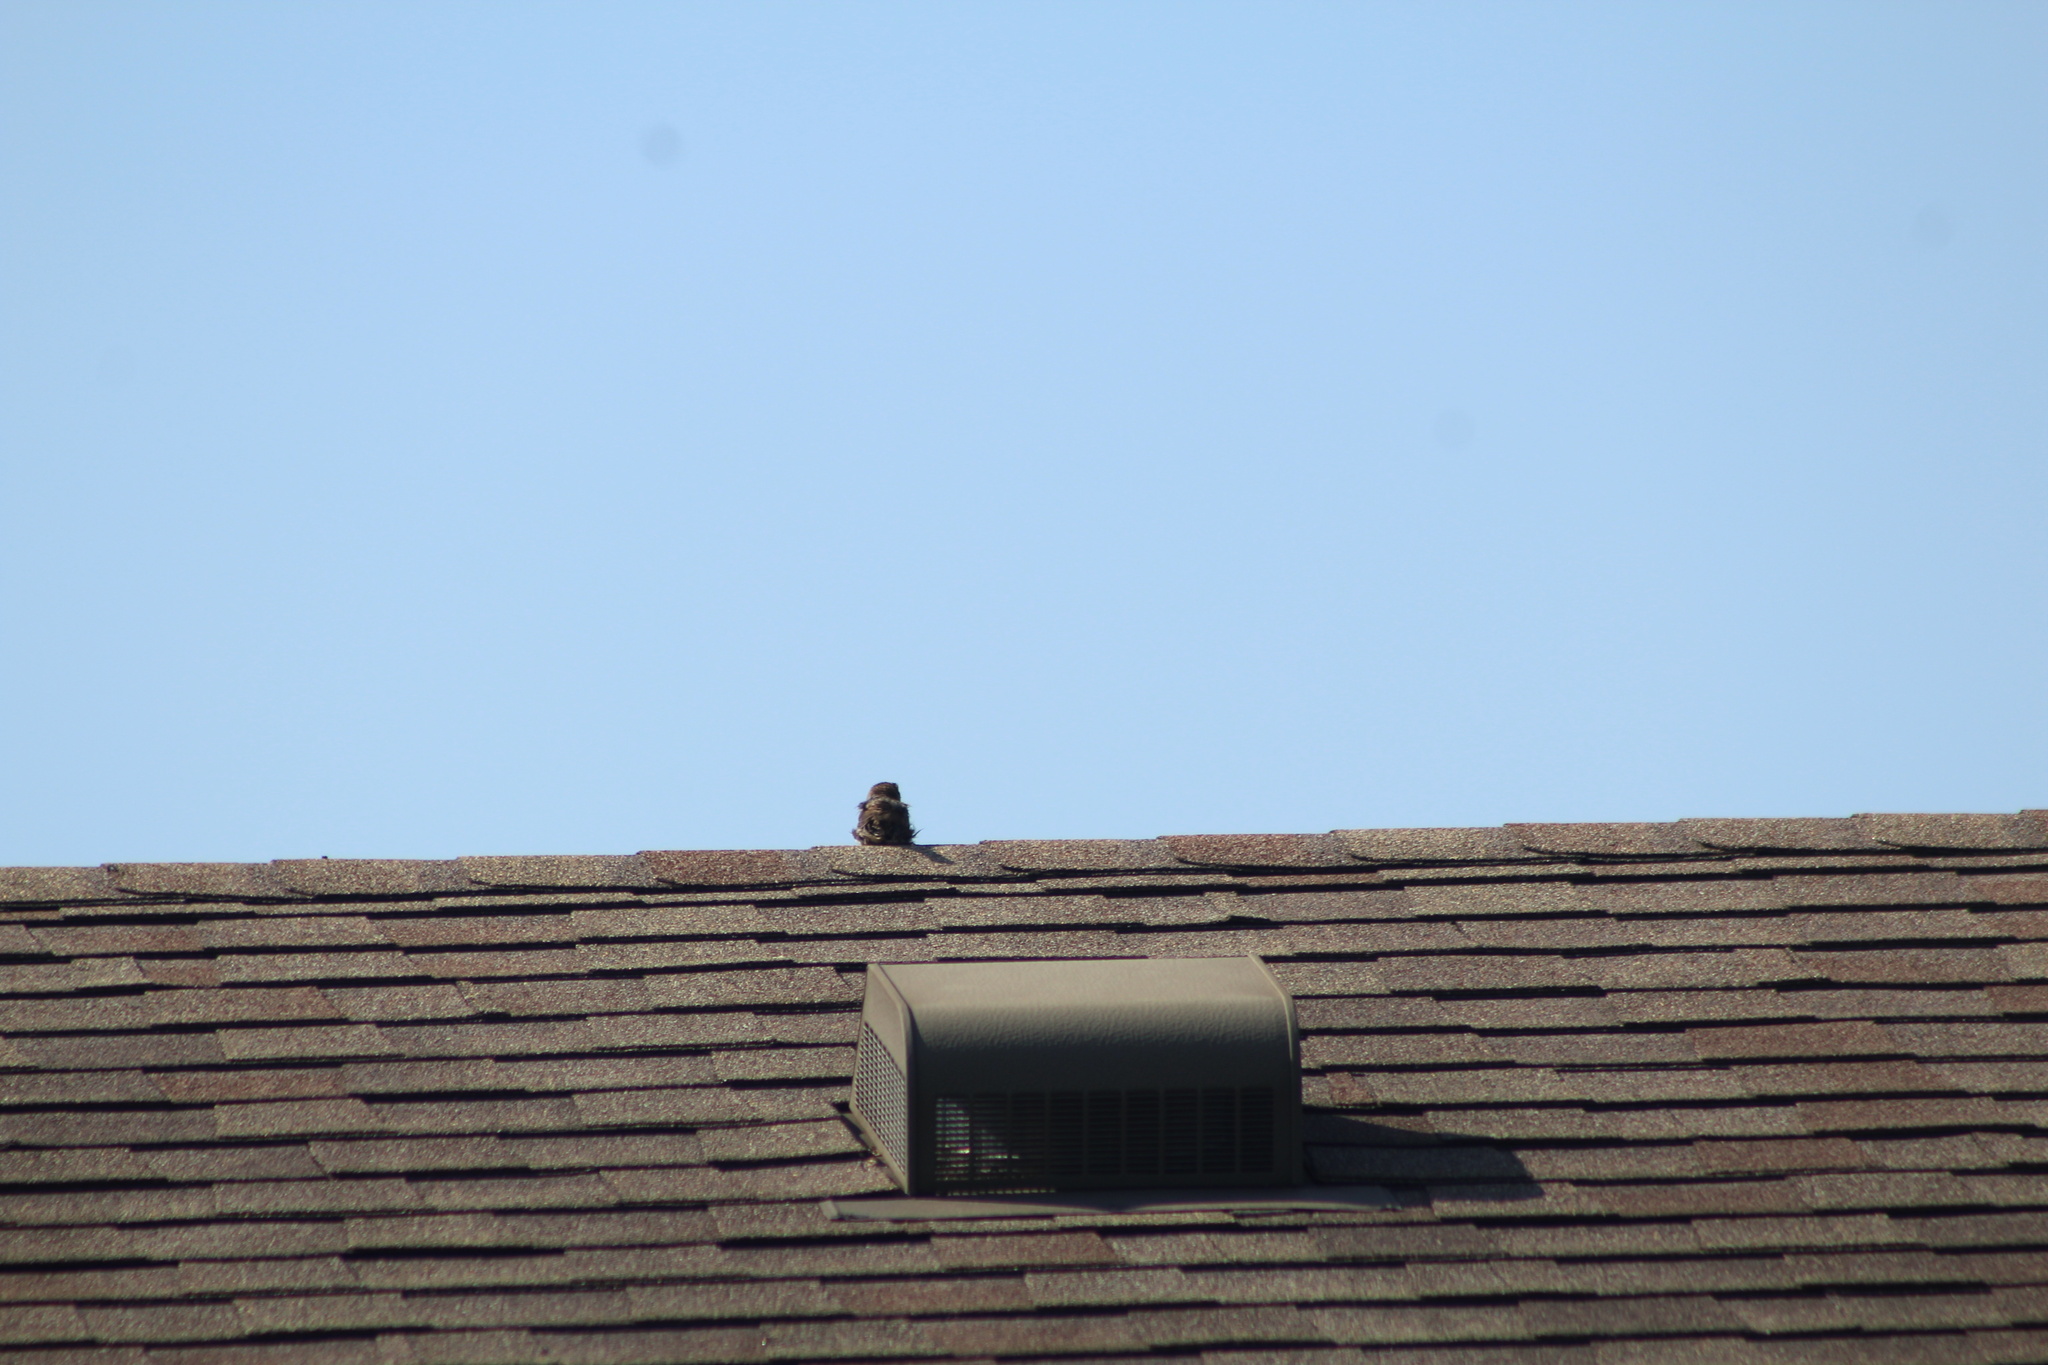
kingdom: Animalia
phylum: Chordata
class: Aves
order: Passeriformes
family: Passeridae
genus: Passer
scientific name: Passer domesticus
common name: House sparrow
